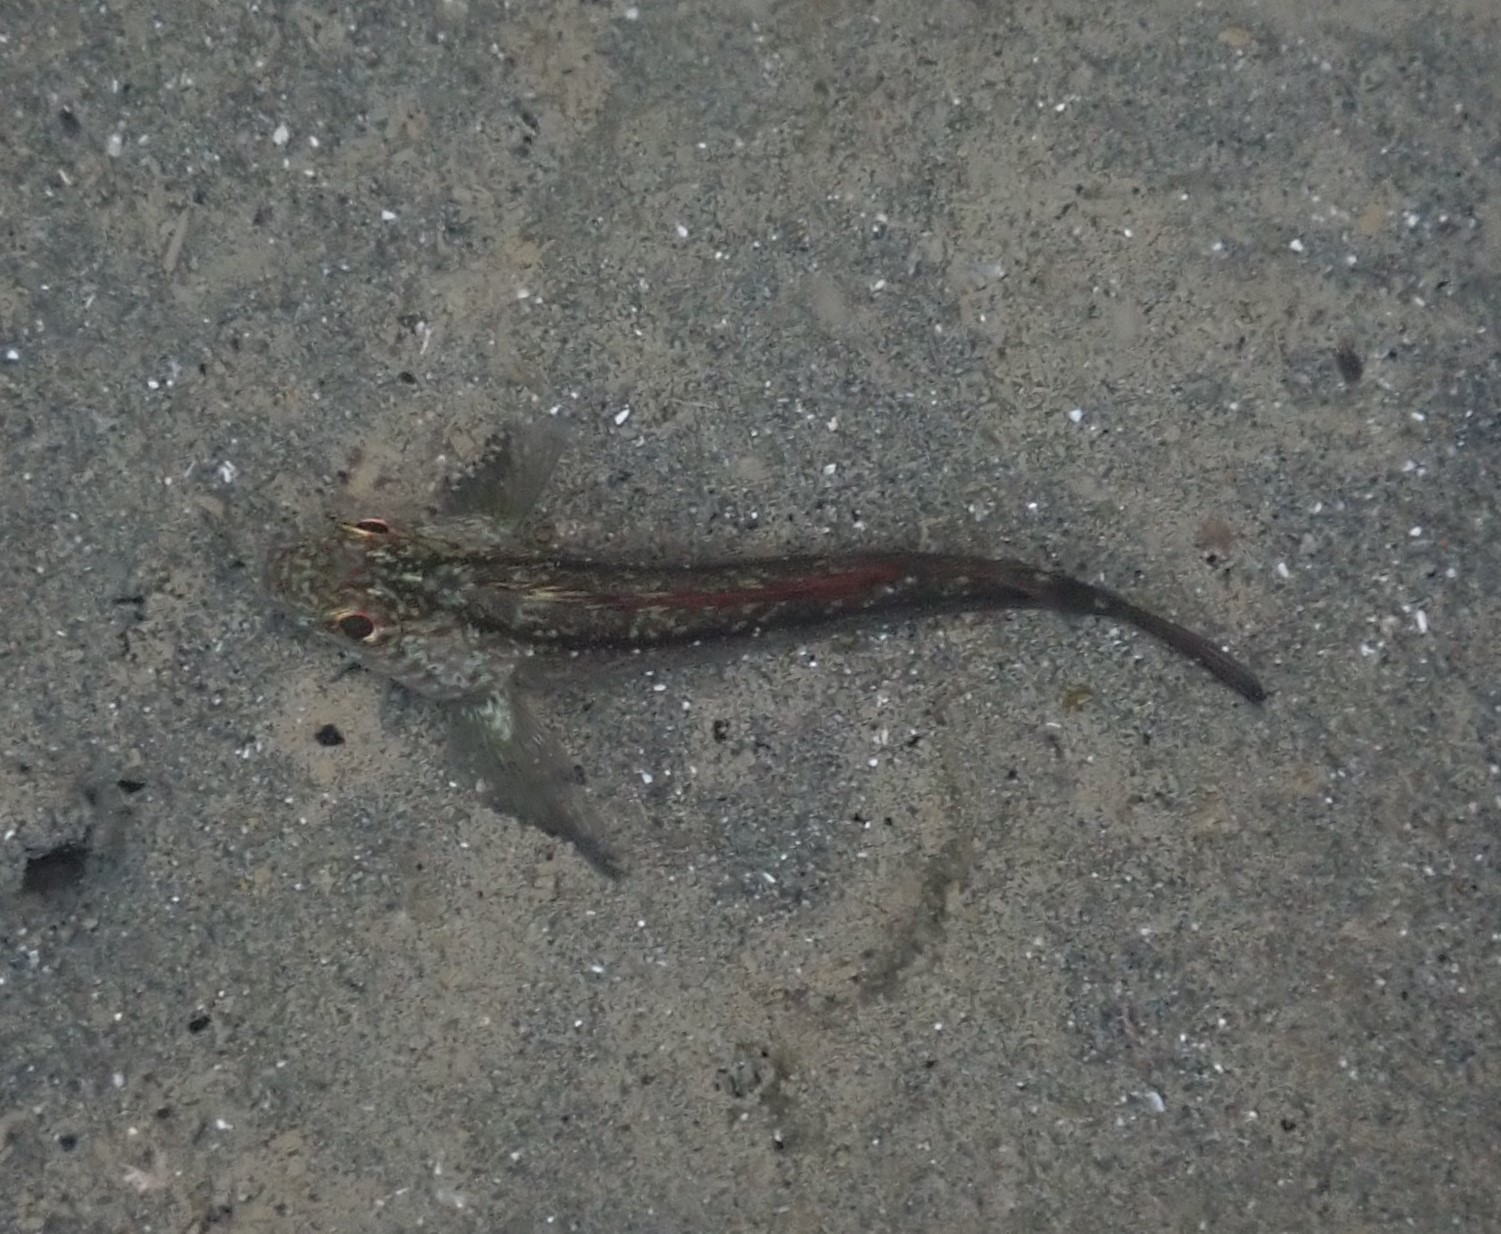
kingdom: Animalia
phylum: Chordata
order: Perciformes
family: Tripterygiidae
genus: Forsterygion
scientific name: Forsterygion lapillum
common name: Common triplefin
